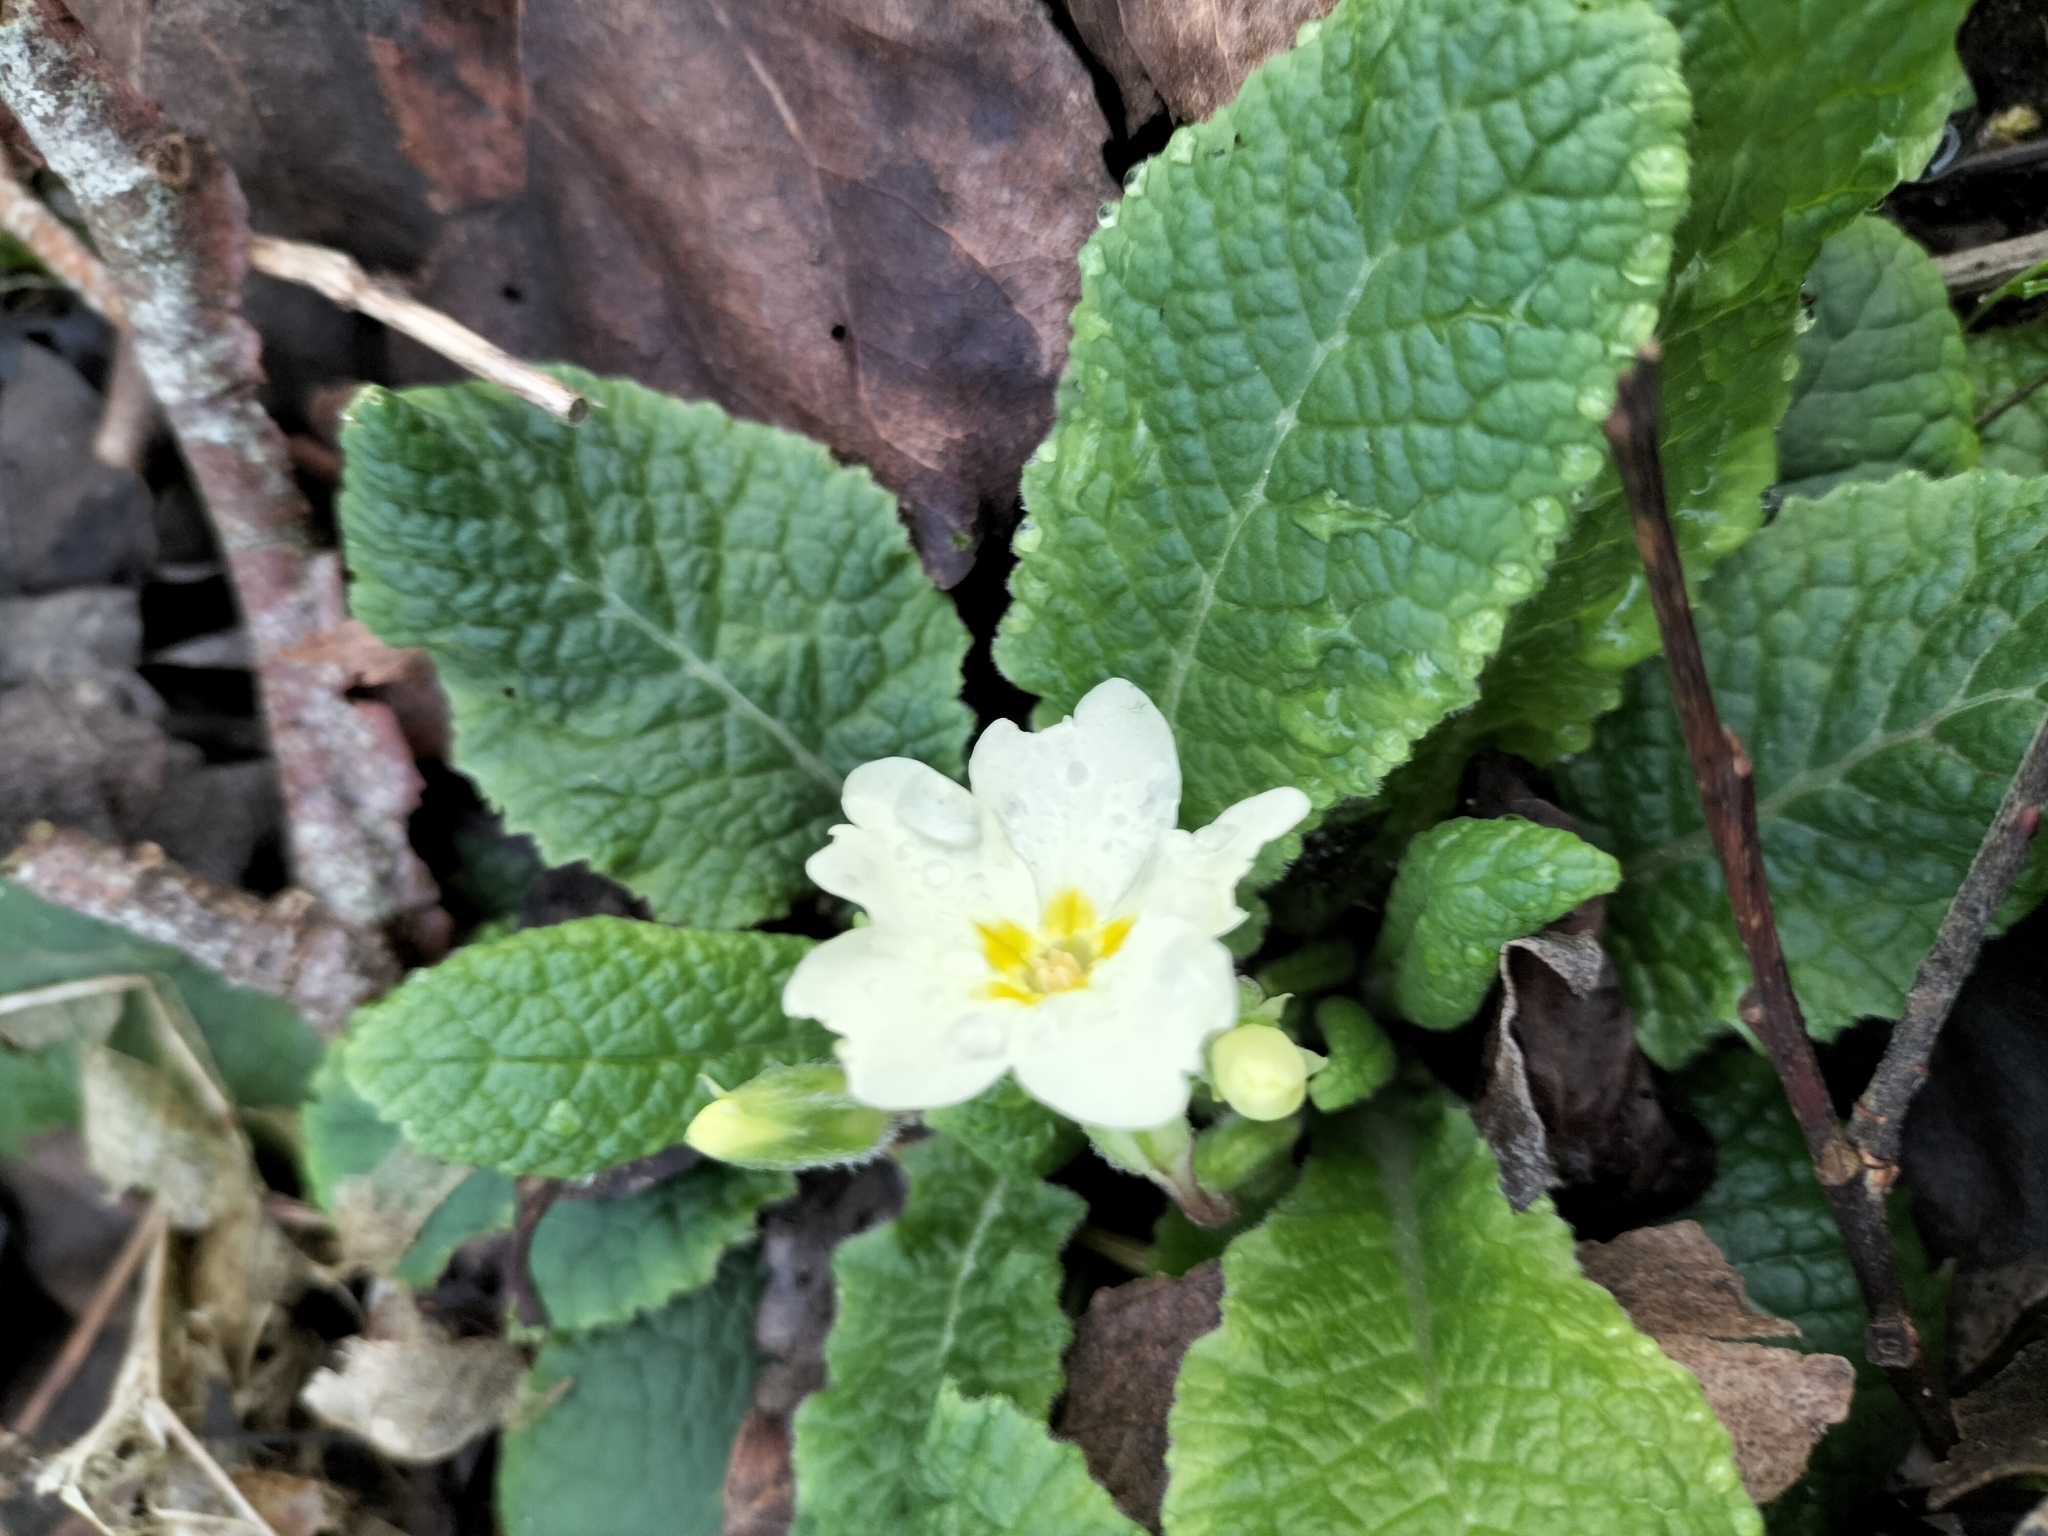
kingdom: Plantae
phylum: Tracheophyta
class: Magnoliopsida
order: Ericales
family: Primulaceae
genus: Primula
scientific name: Primula vulgaris
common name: Primrose
